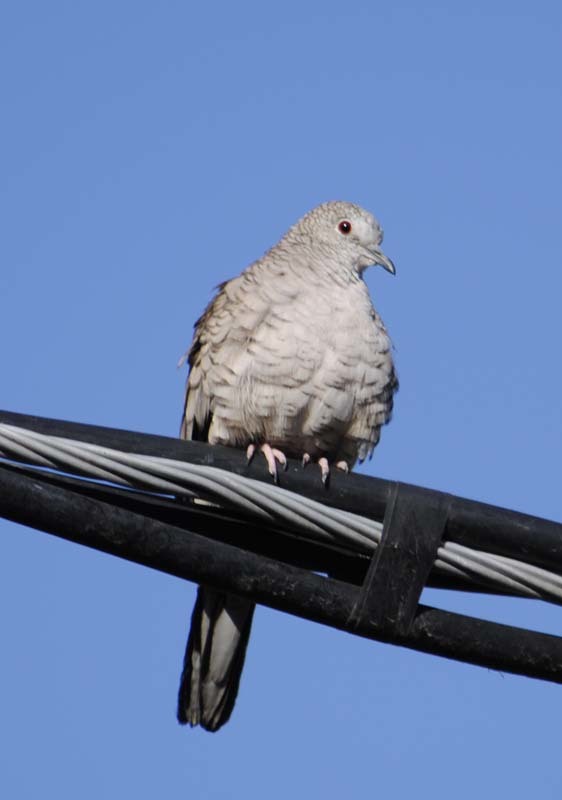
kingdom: Animalia
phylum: Chordata
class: Aves
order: Columbiformes
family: Columbidae
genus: Columbina
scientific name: Columbina inca
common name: Inca dove
